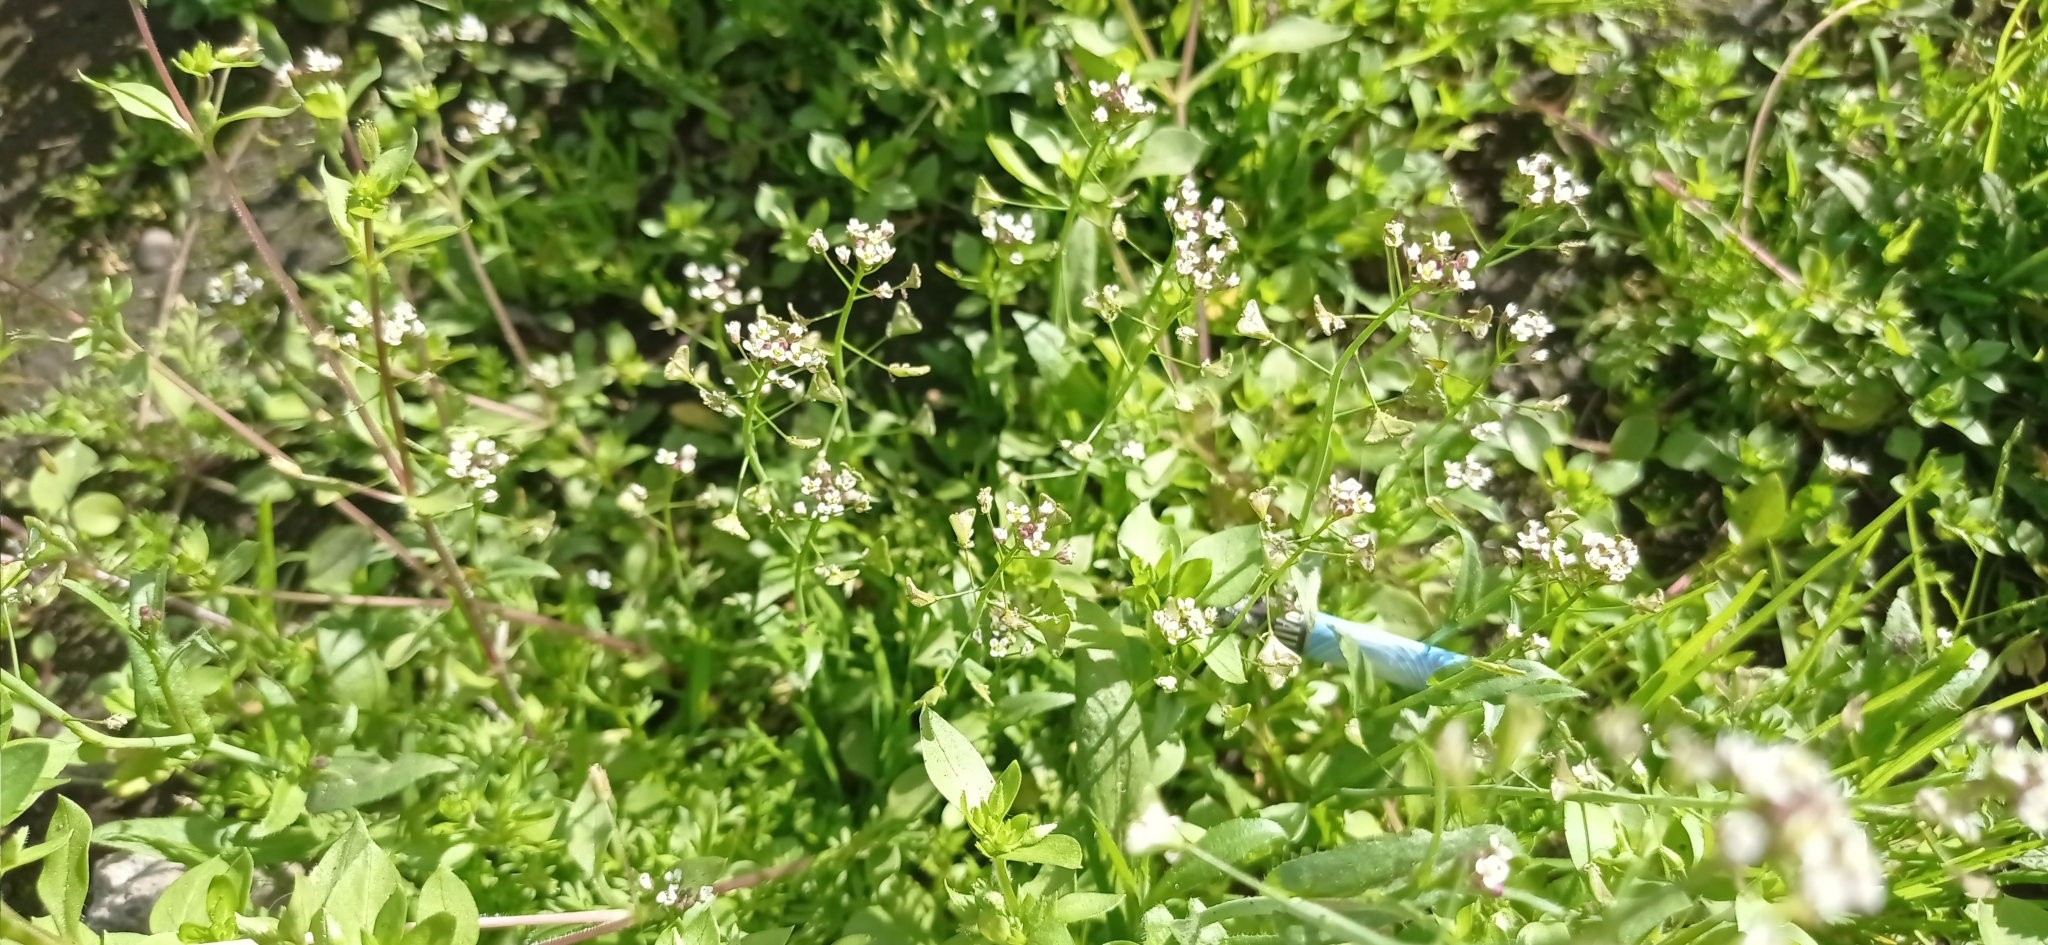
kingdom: Plantae
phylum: Tracheophyta
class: Magnoliopsida
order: Brassicales
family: Brassicaceae
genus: Capsella
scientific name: Capsella bursa-pastoris
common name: Shepherd's purse
